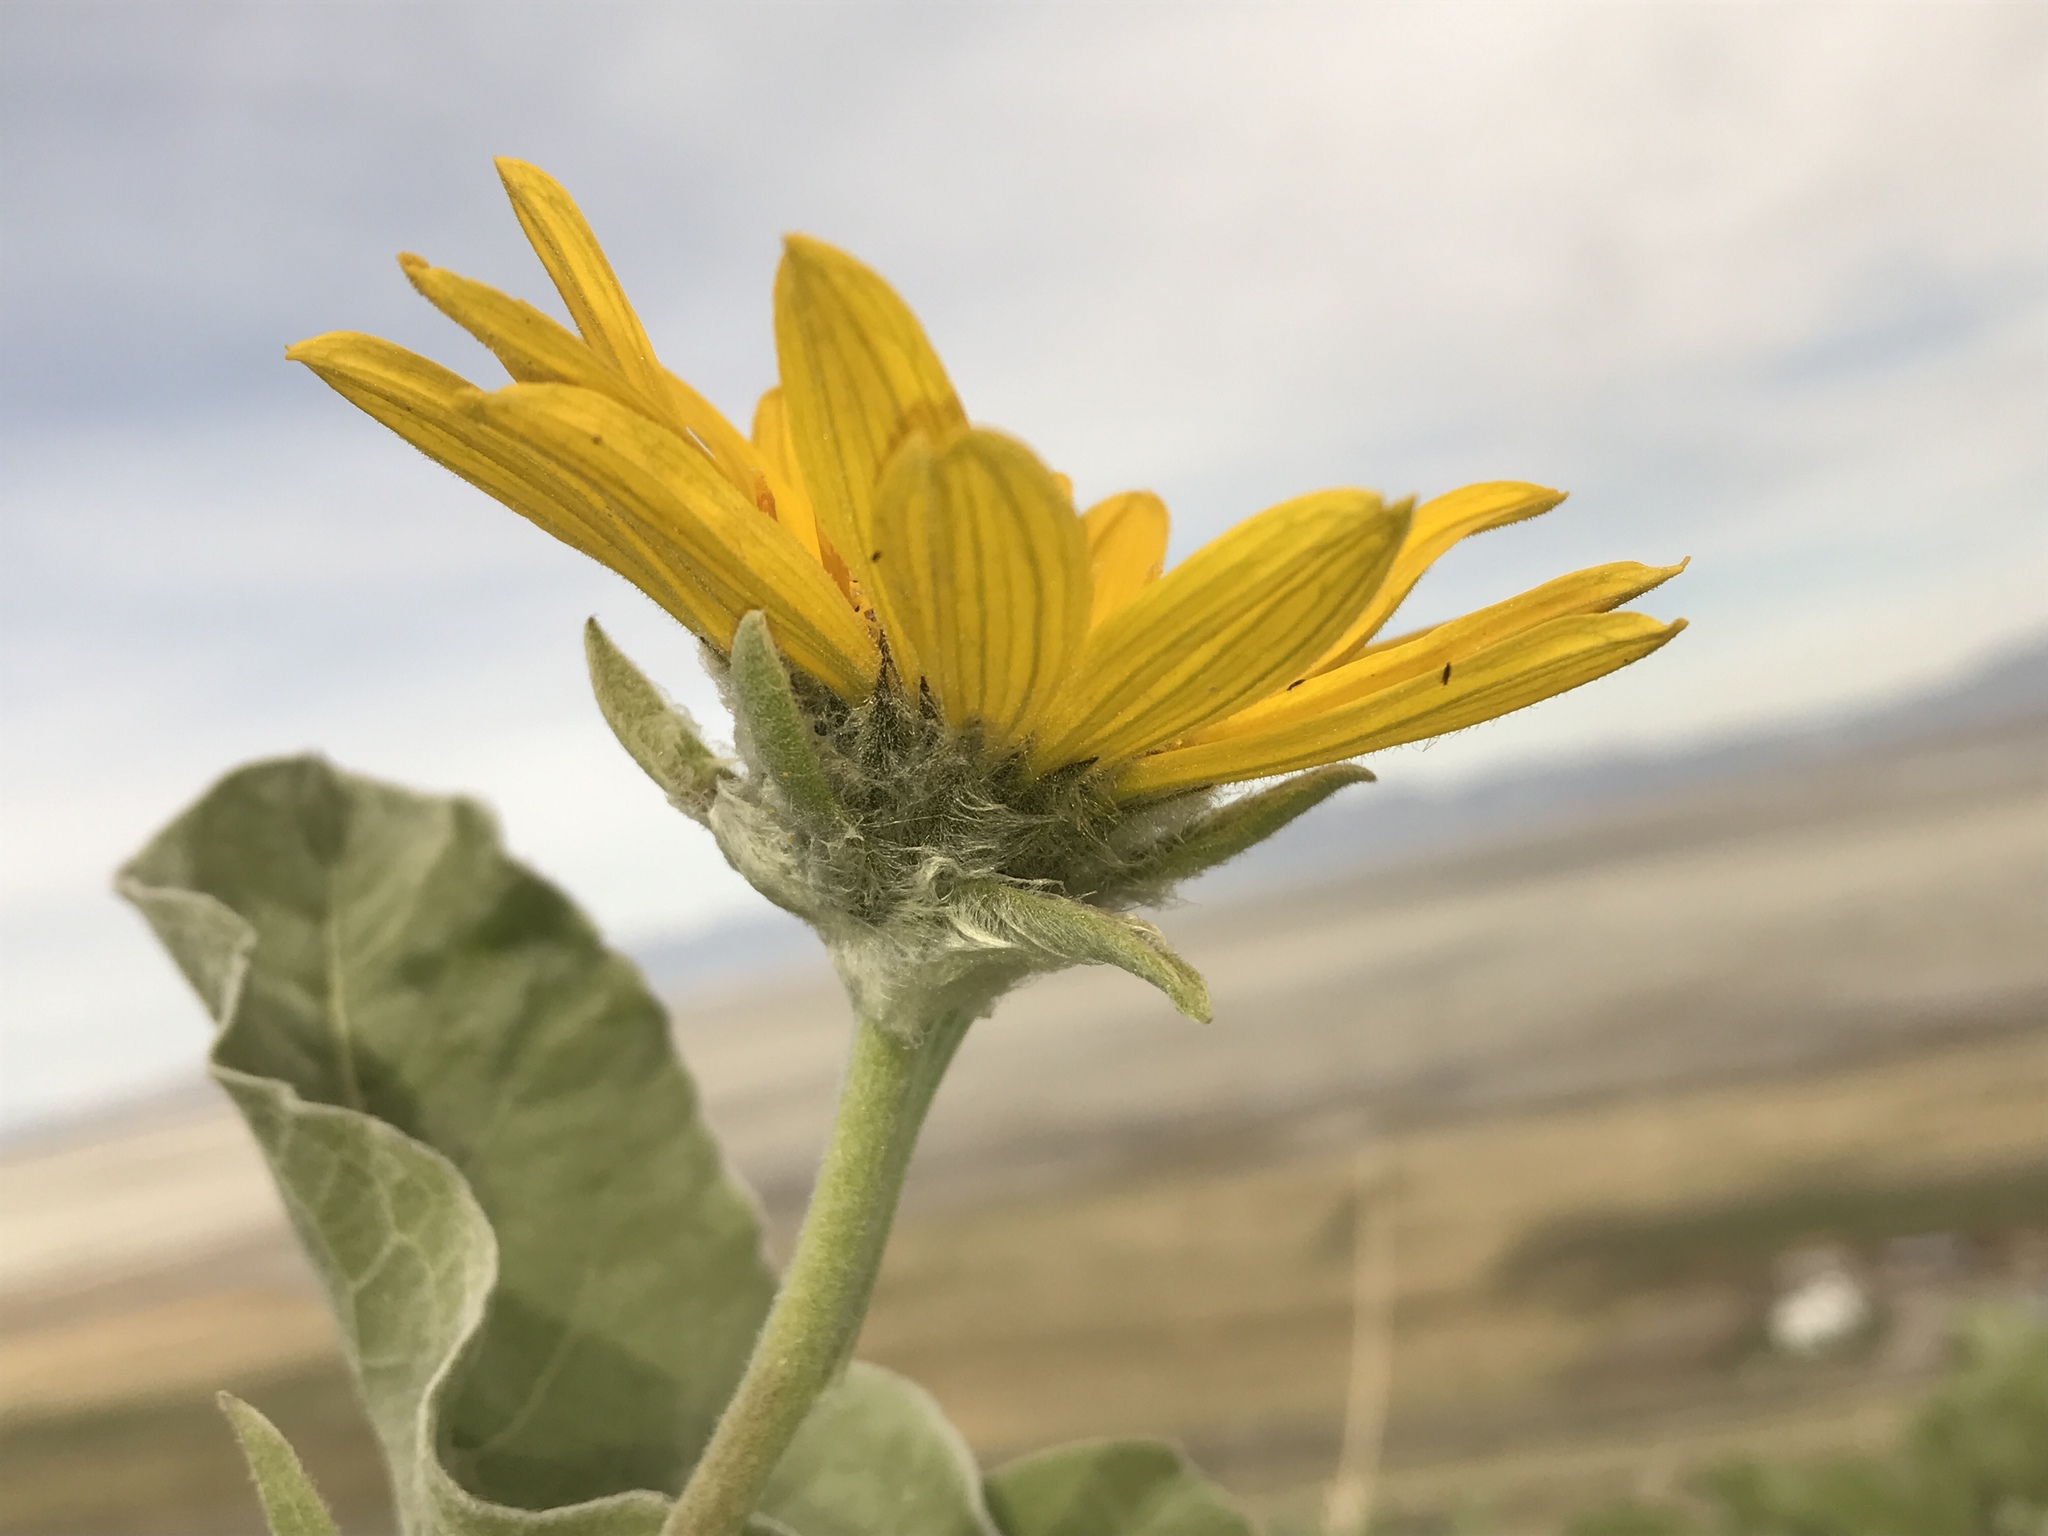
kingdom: Plantae
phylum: Tracheophyta
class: Magnoliopsida
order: Asterales
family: Asteraceae
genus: Wyethia
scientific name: Wyethia sagittata
